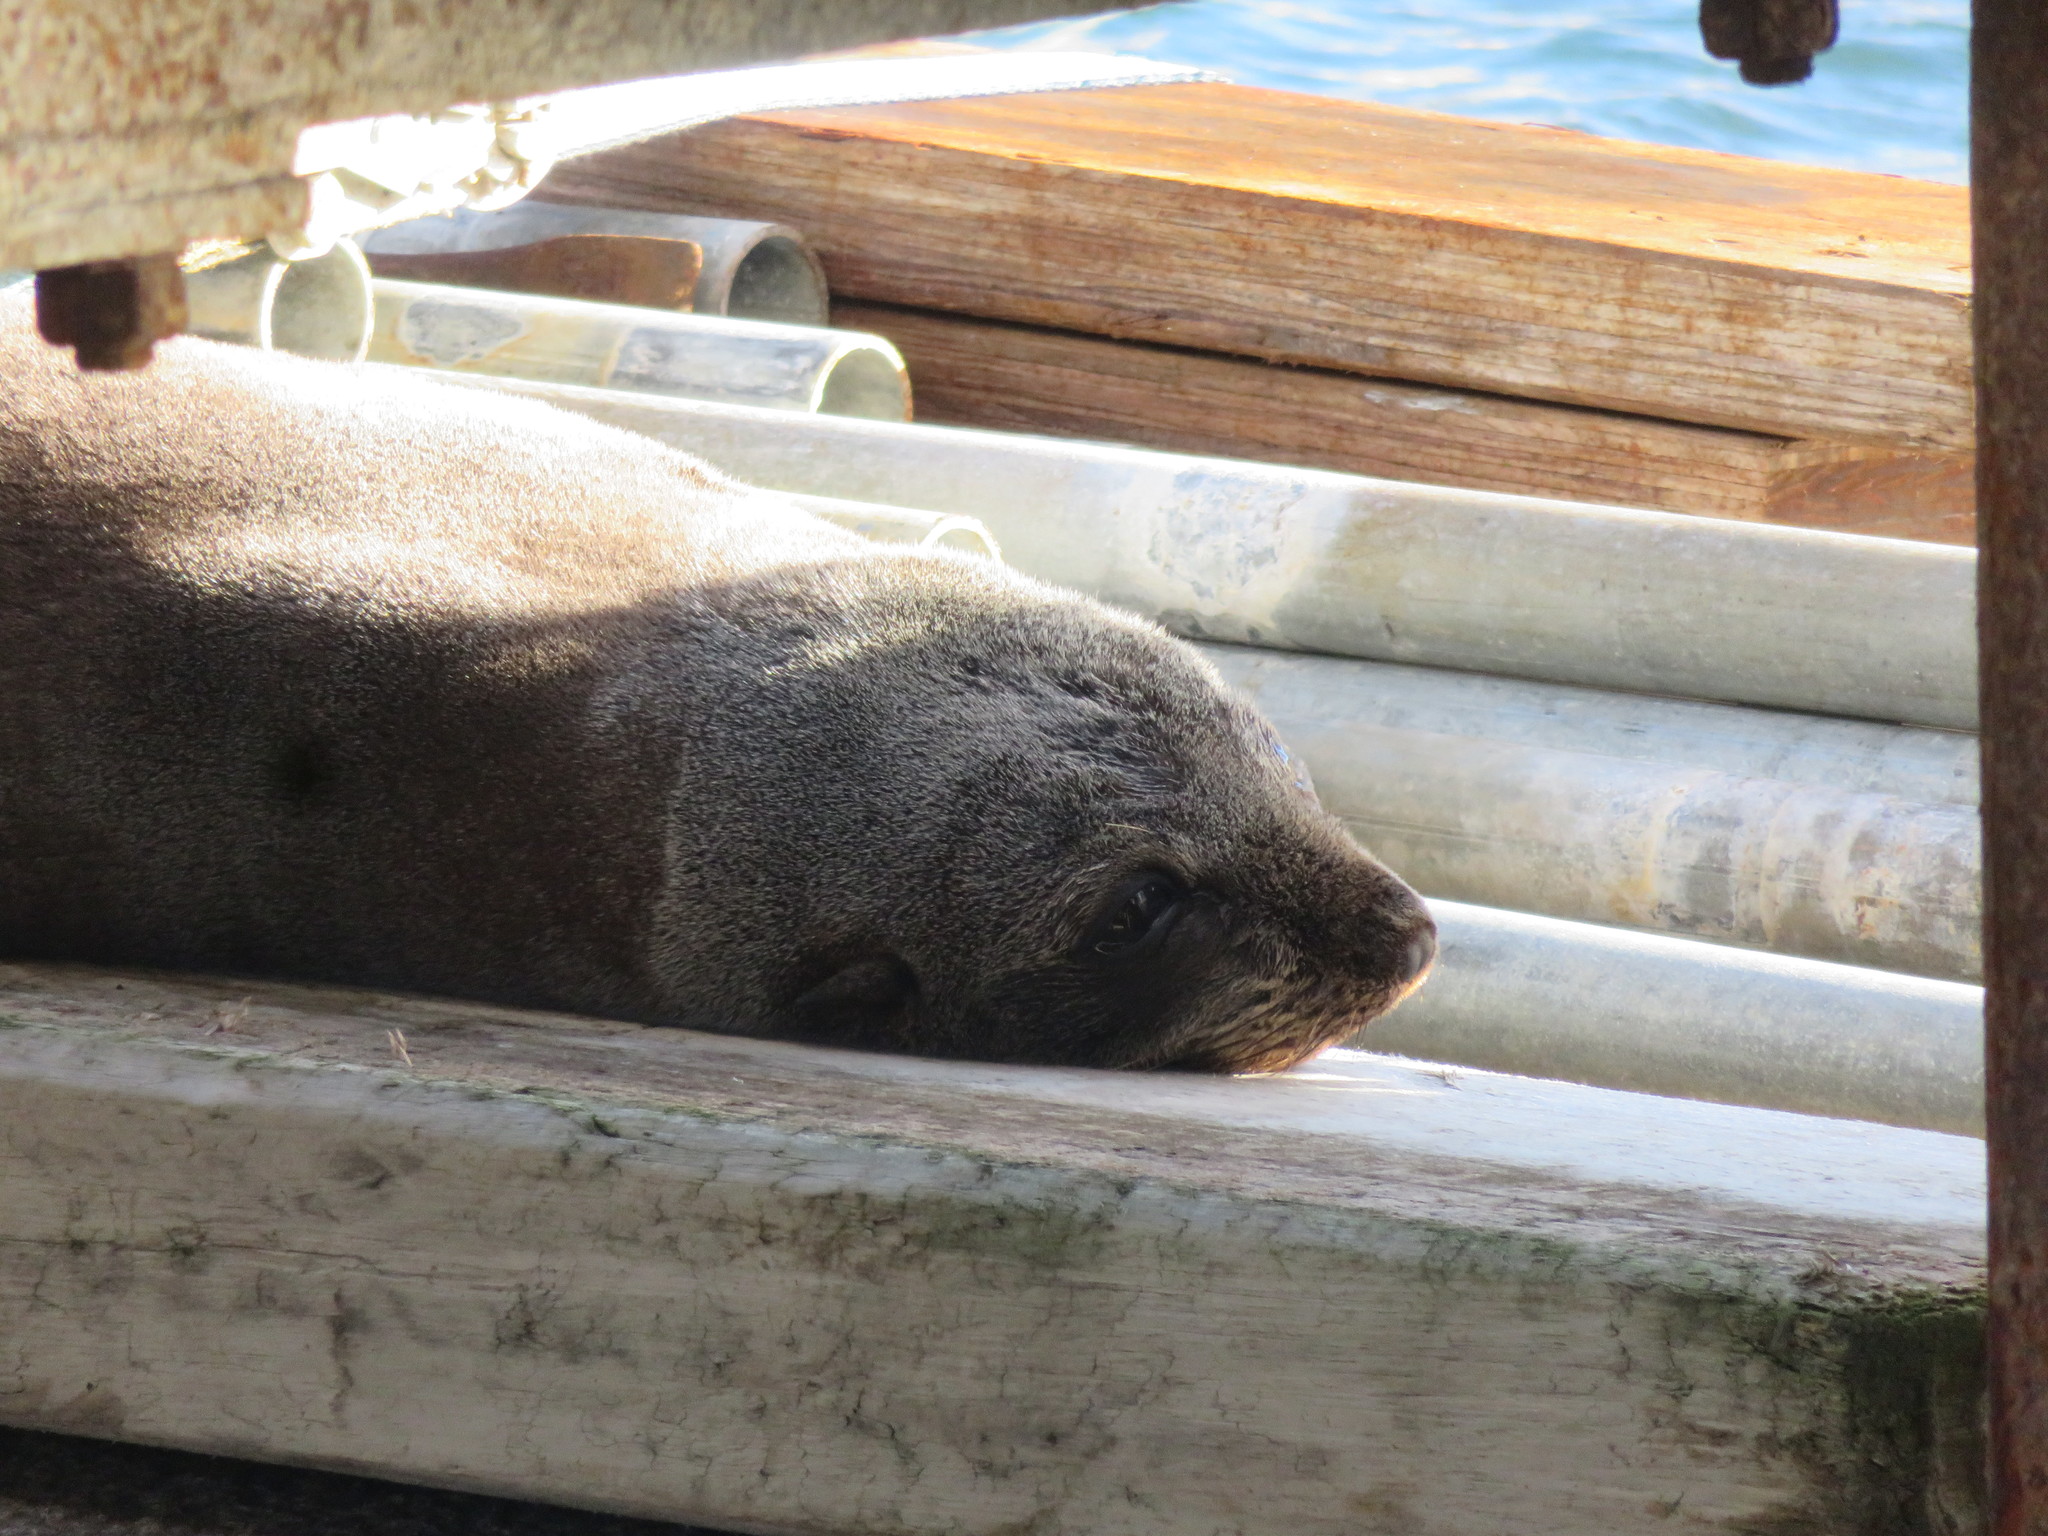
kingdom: Animalia
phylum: Chordata
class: Mammalia
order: Carnivora
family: Otariidae
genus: Arctocephalus
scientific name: Arctocephalus forsteri
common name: New zealand fur seal
